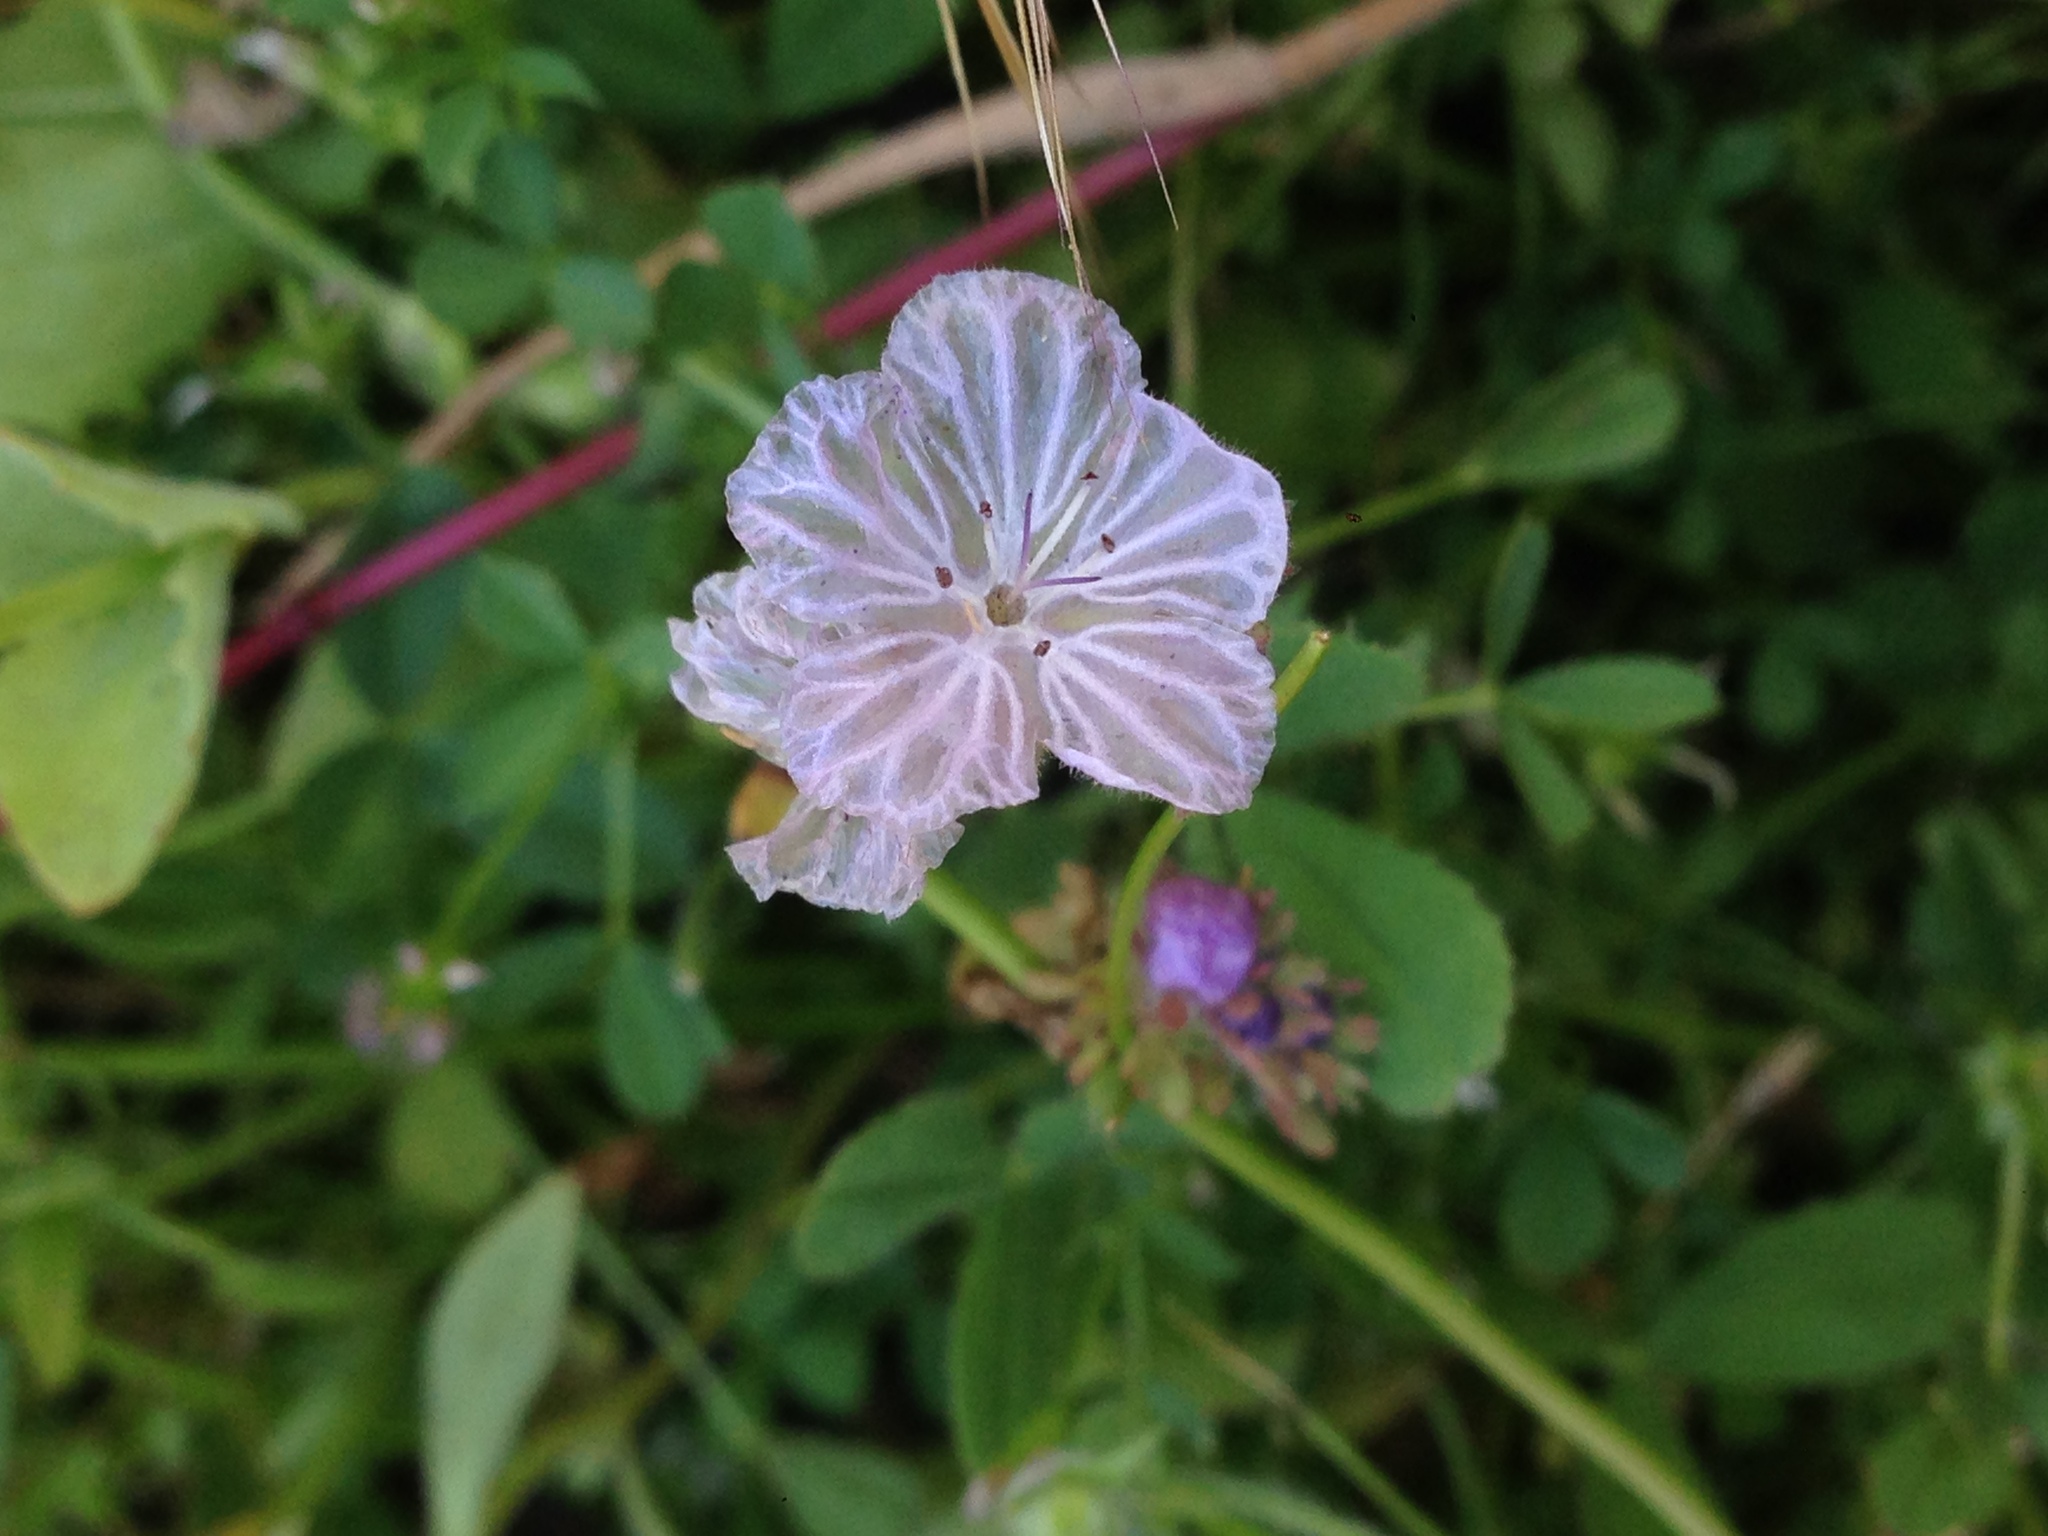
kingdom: Plantae
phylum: Tracheophyta
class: Magnoliopsida
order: Boraginales
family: Hydrophyllaceae
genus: Phacelia
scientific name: Phacelia exilis
